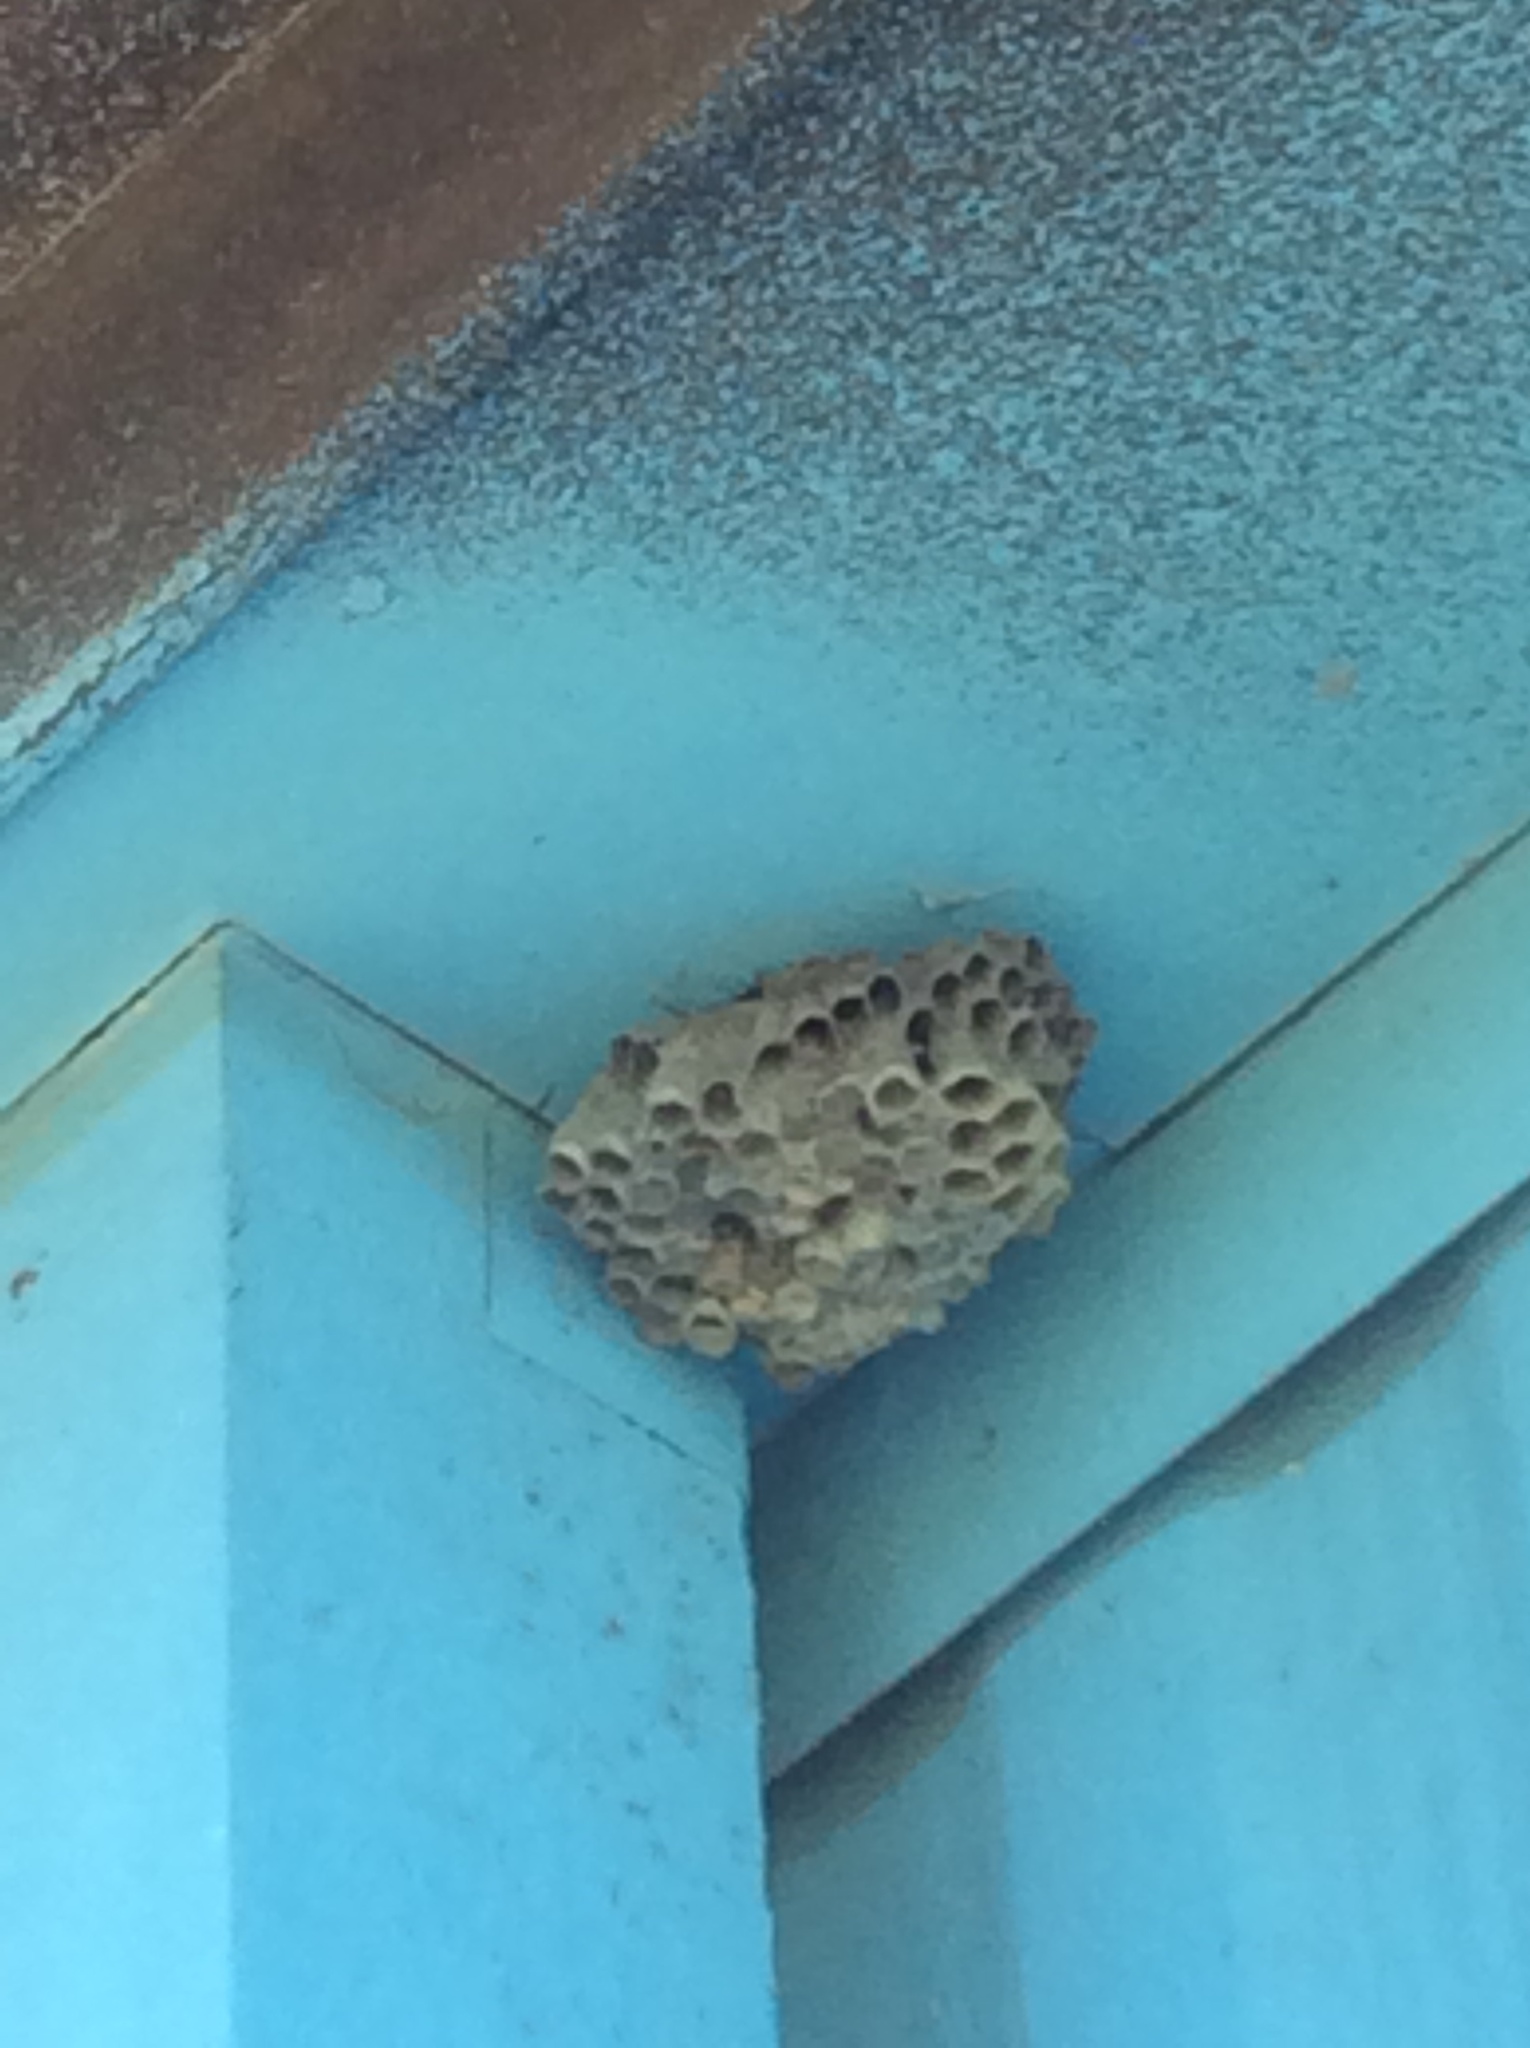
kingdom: Animalia
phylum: Arthropoda
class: Insecta
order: Hymenoptera
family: Vespidae
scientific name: Vespidae
